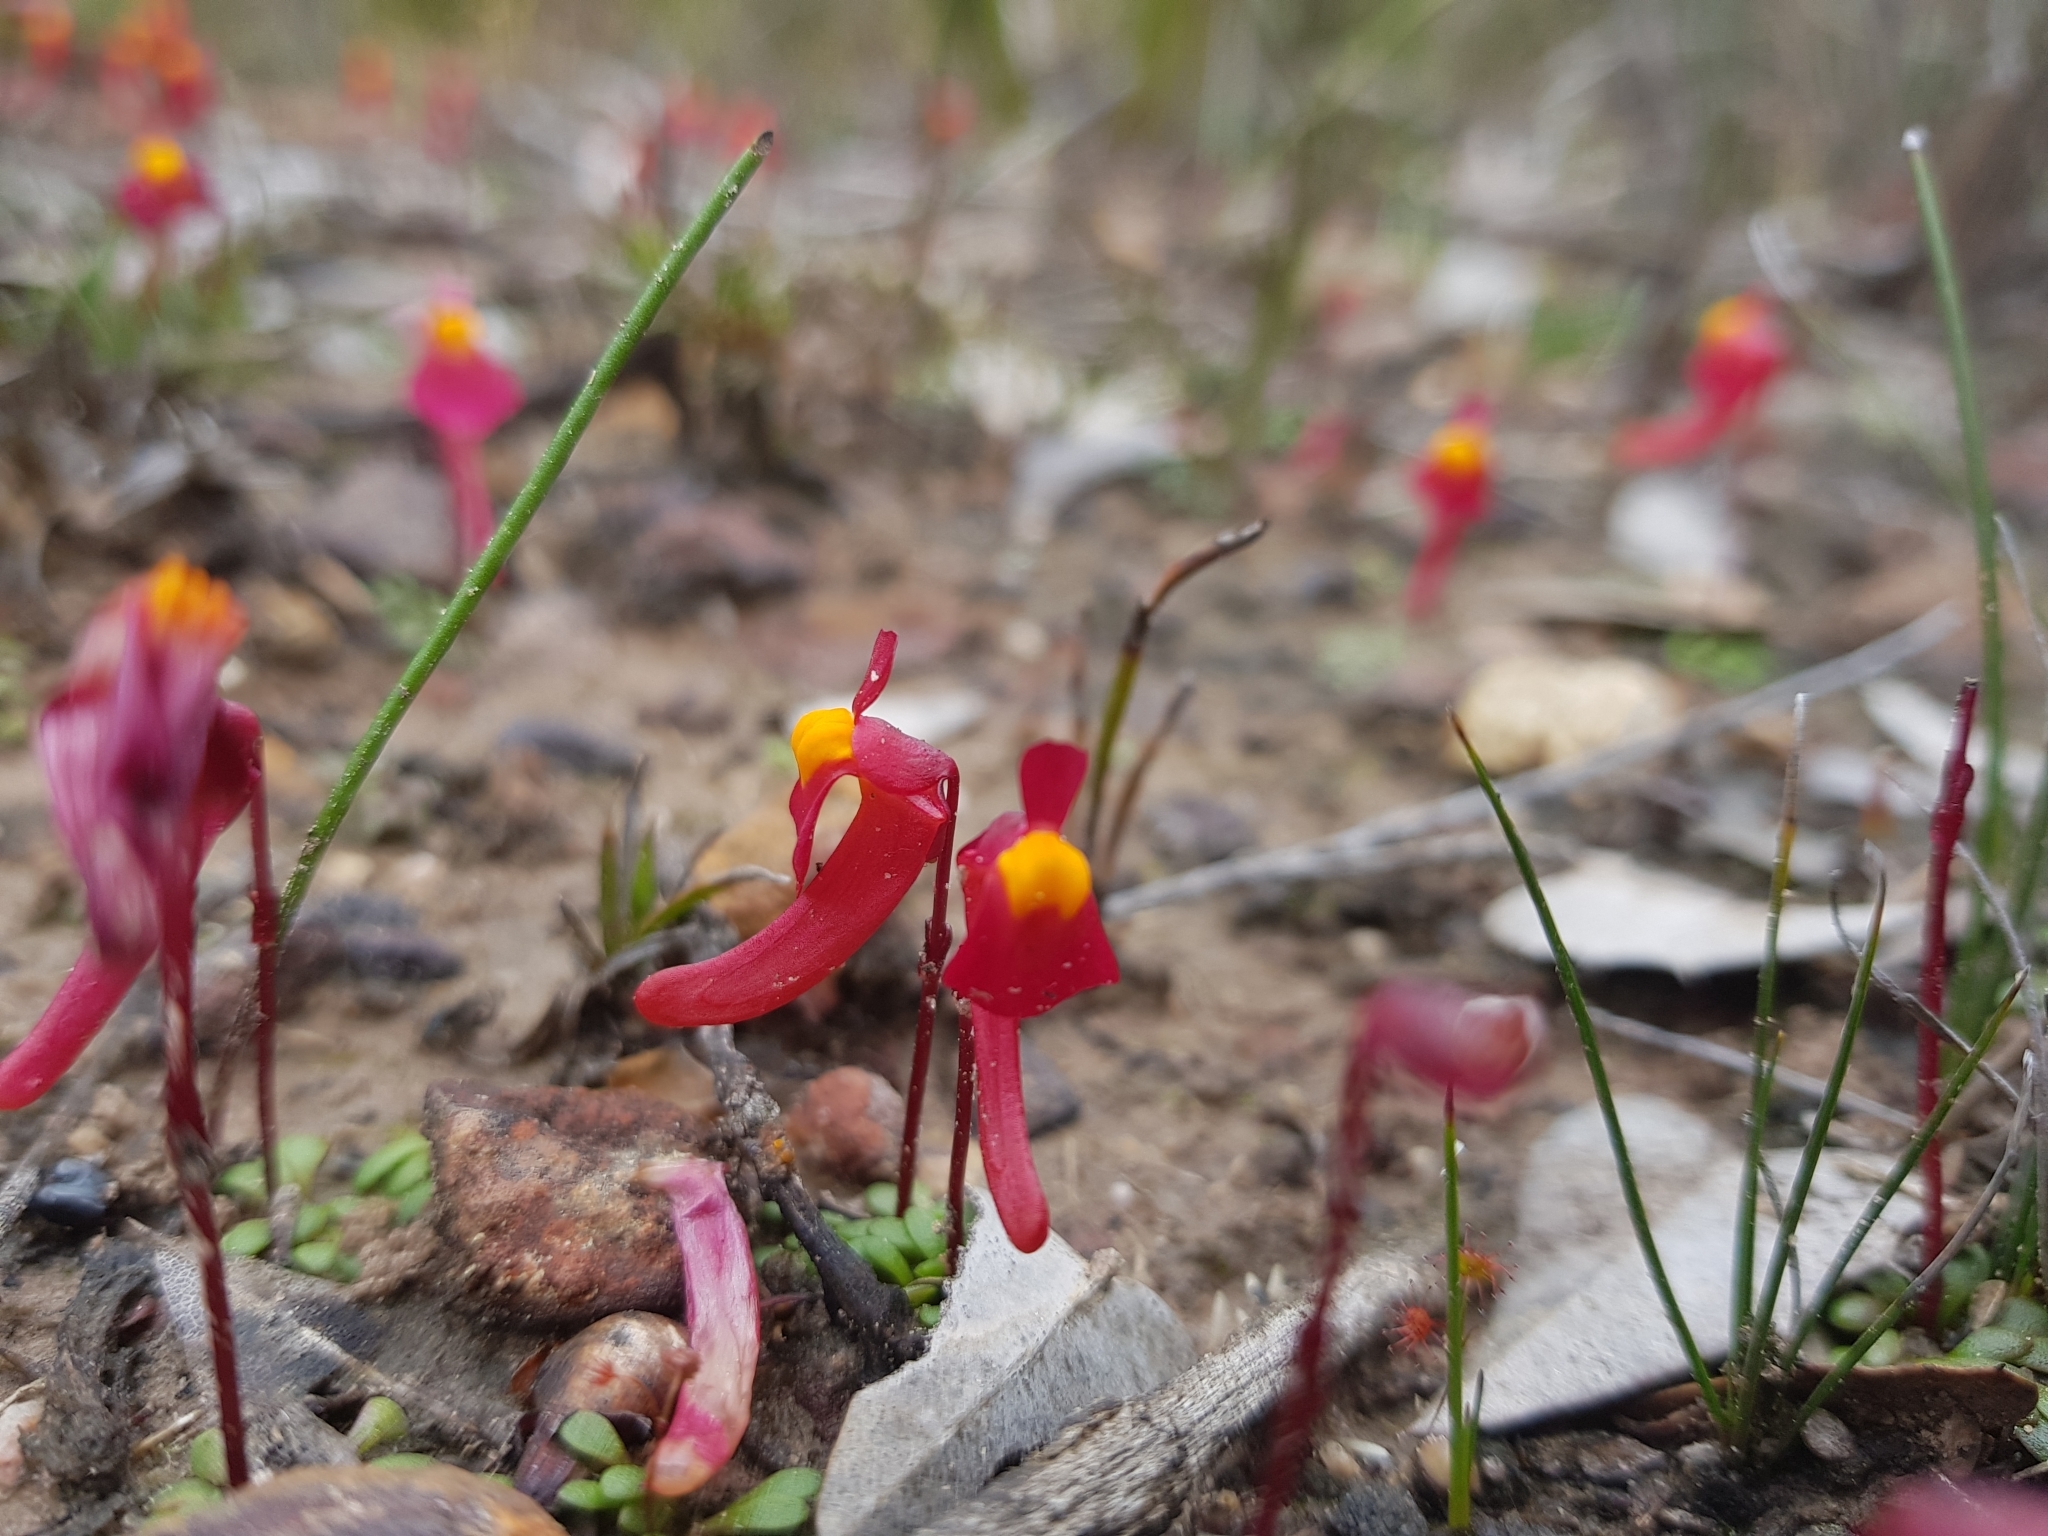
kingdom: Plantae
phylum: Tracheophyta
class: Magnoliopsida
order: Lamiales
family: Lentibulariaceae
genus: Utricularia
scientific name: Utricularia menziesii
